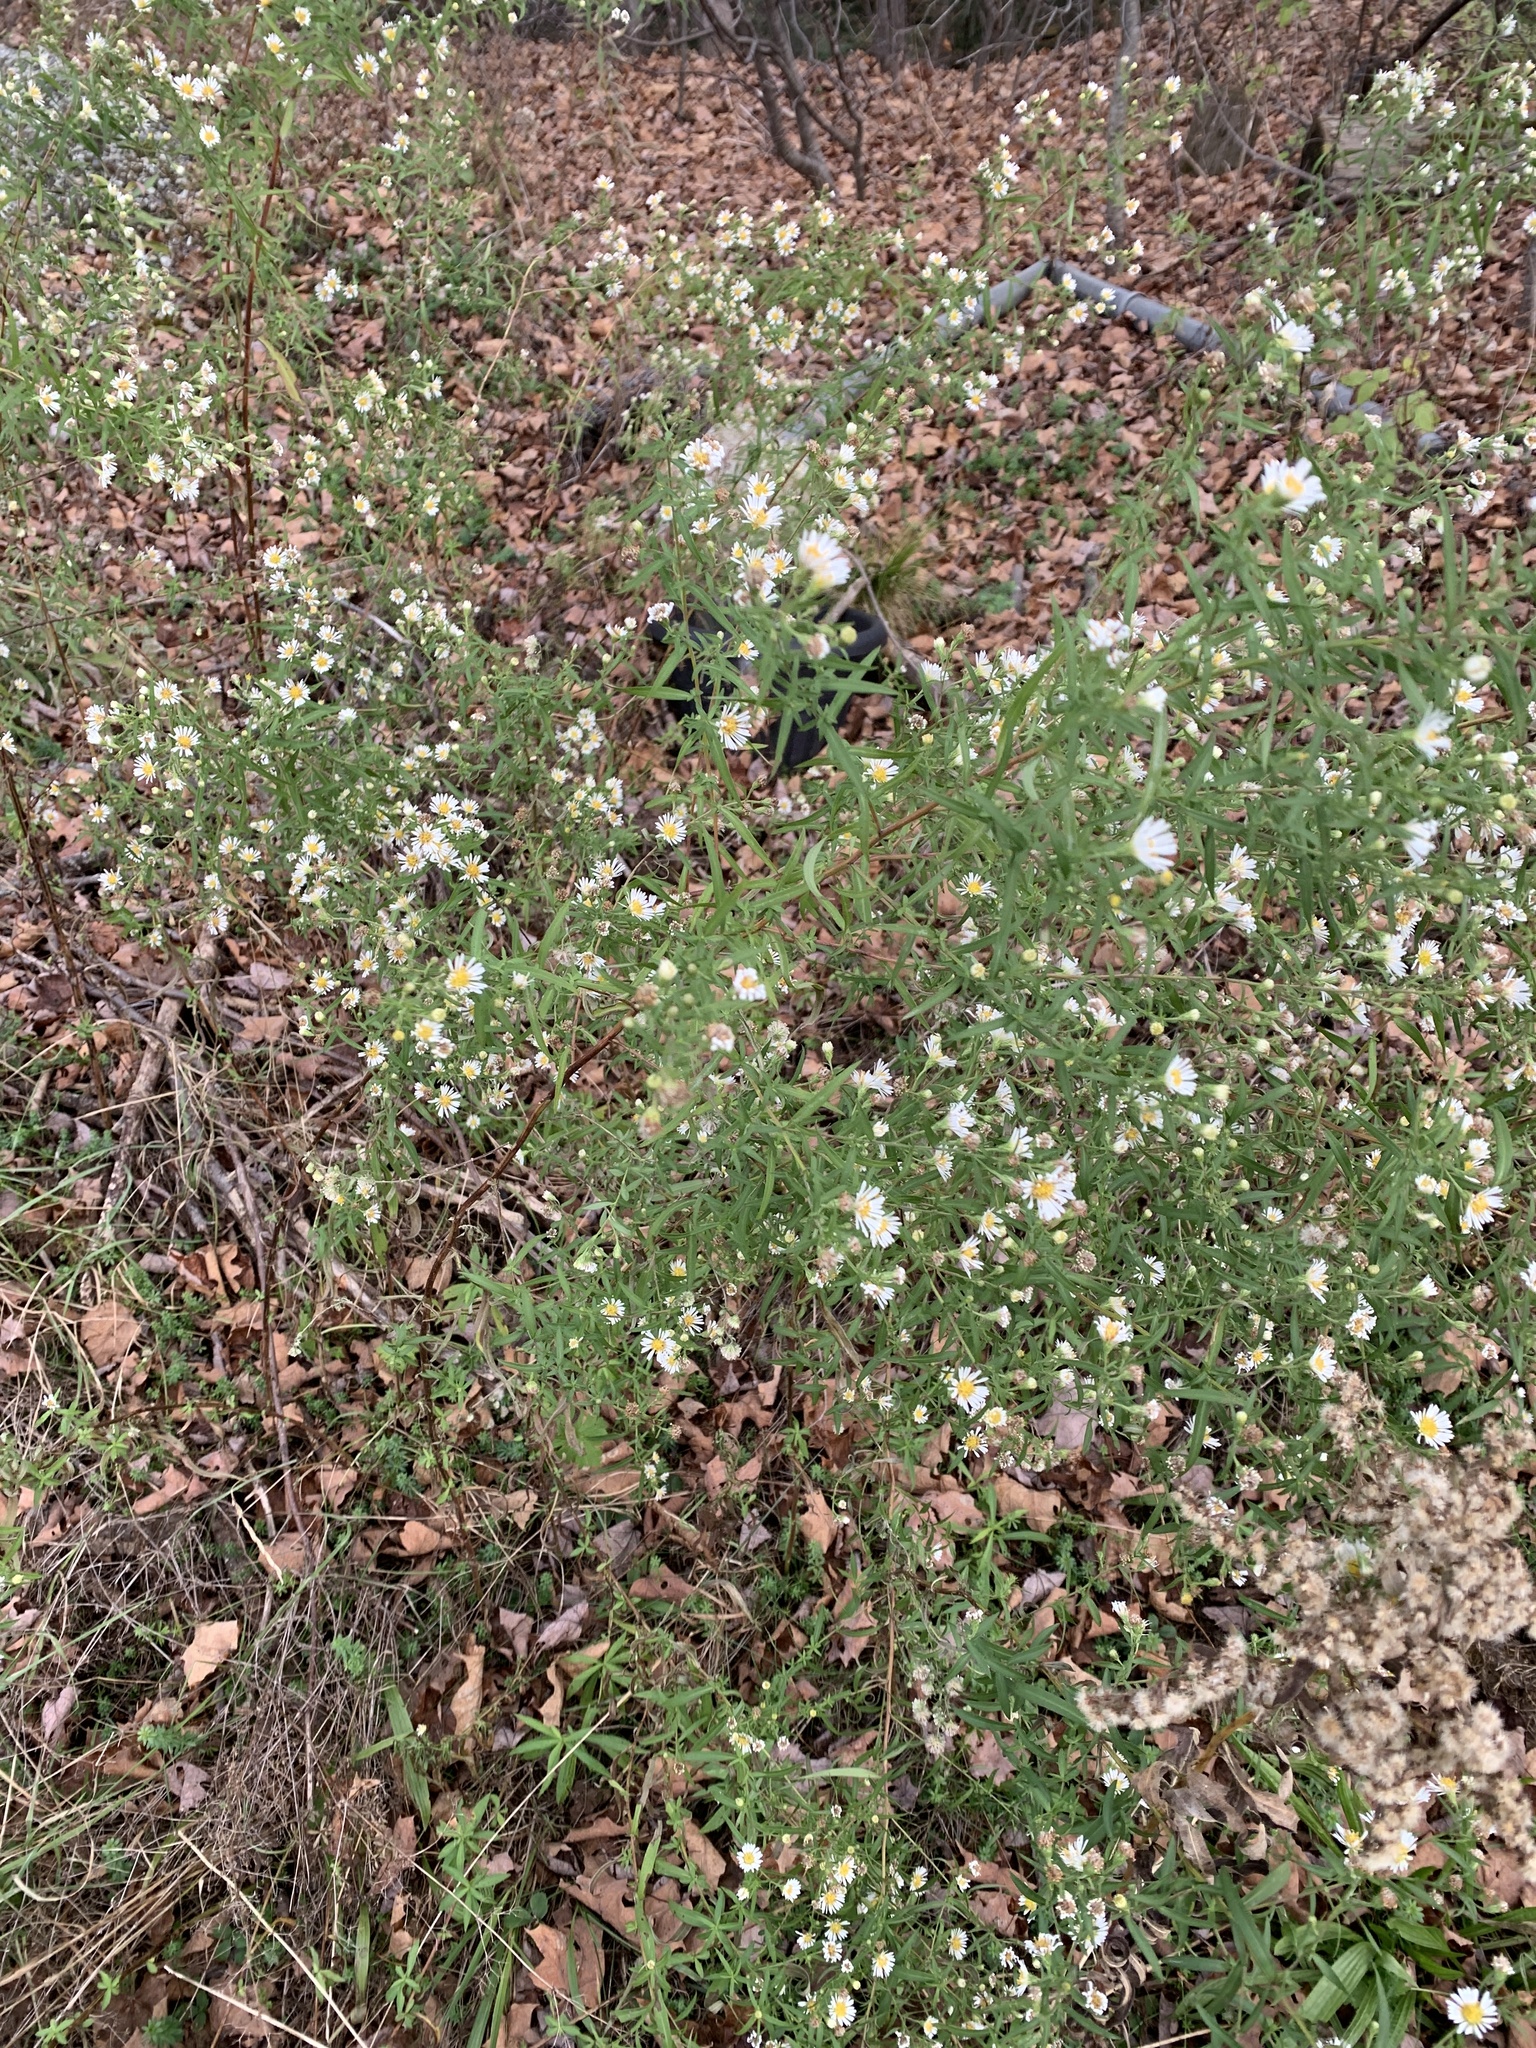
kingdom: Plantae
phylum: Tracheophyta
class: Magnoliopsida
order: Asterales
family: Asteraceae
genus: Symphyotrichum
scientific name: Symphyotrichum lanceolatum
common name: Panicled aster
